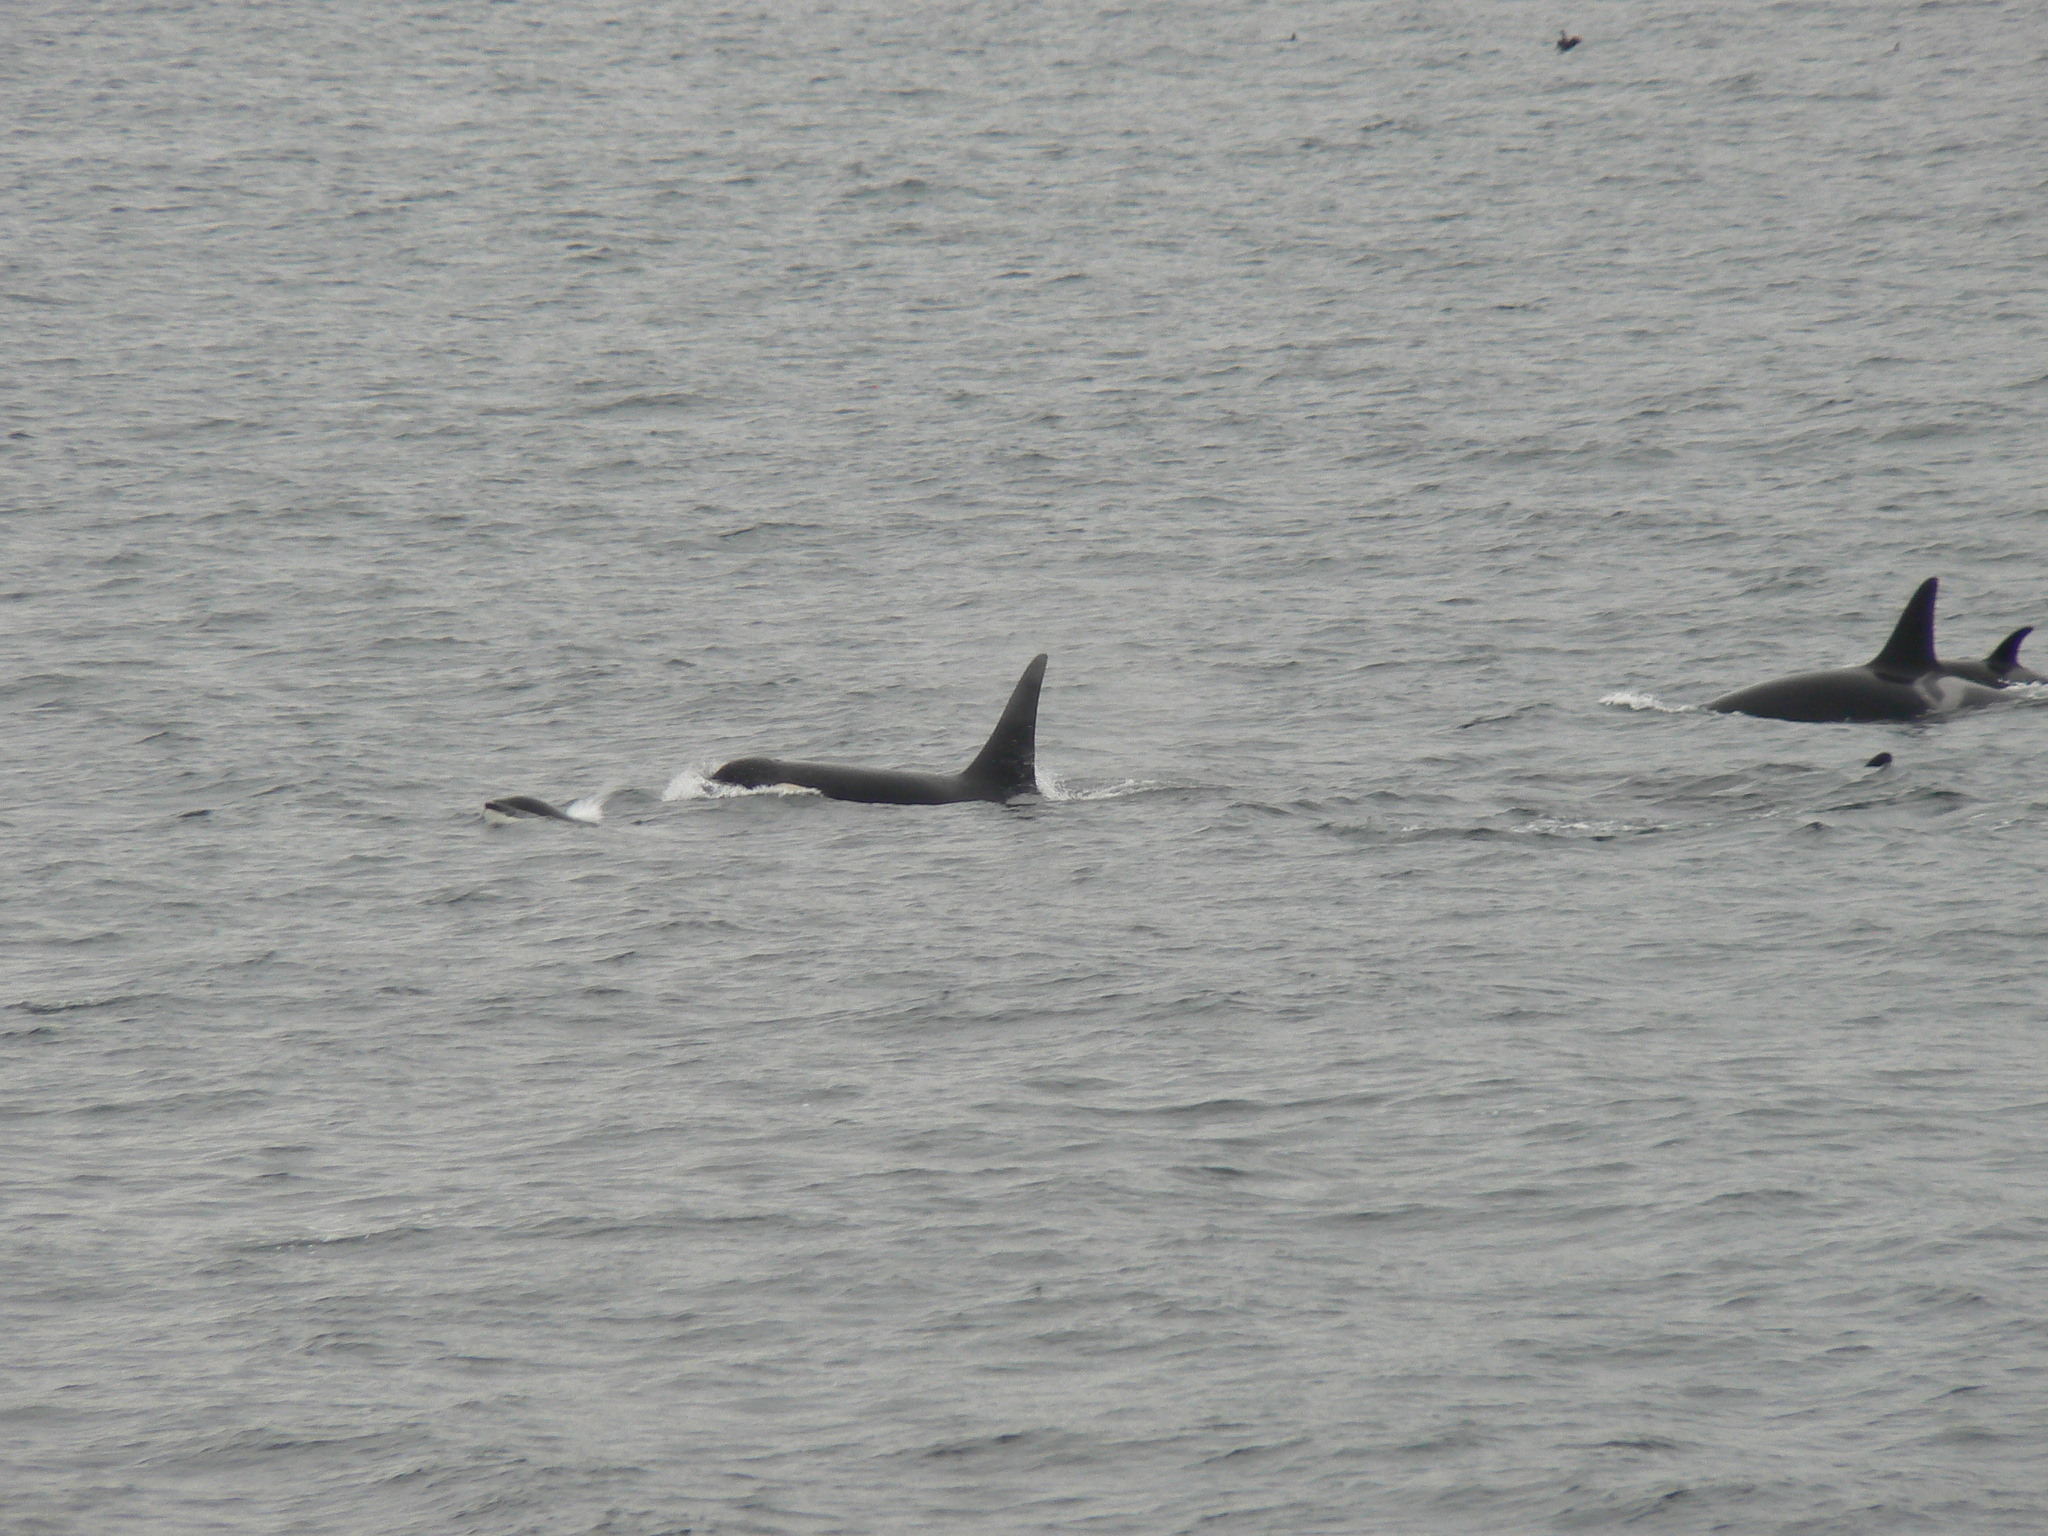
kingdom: Animalia
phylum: Chordata
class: Mammalia
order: Cetacea
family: Delphinidae
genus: Orcinus
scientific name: Orcinus orca
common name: Killer whale
